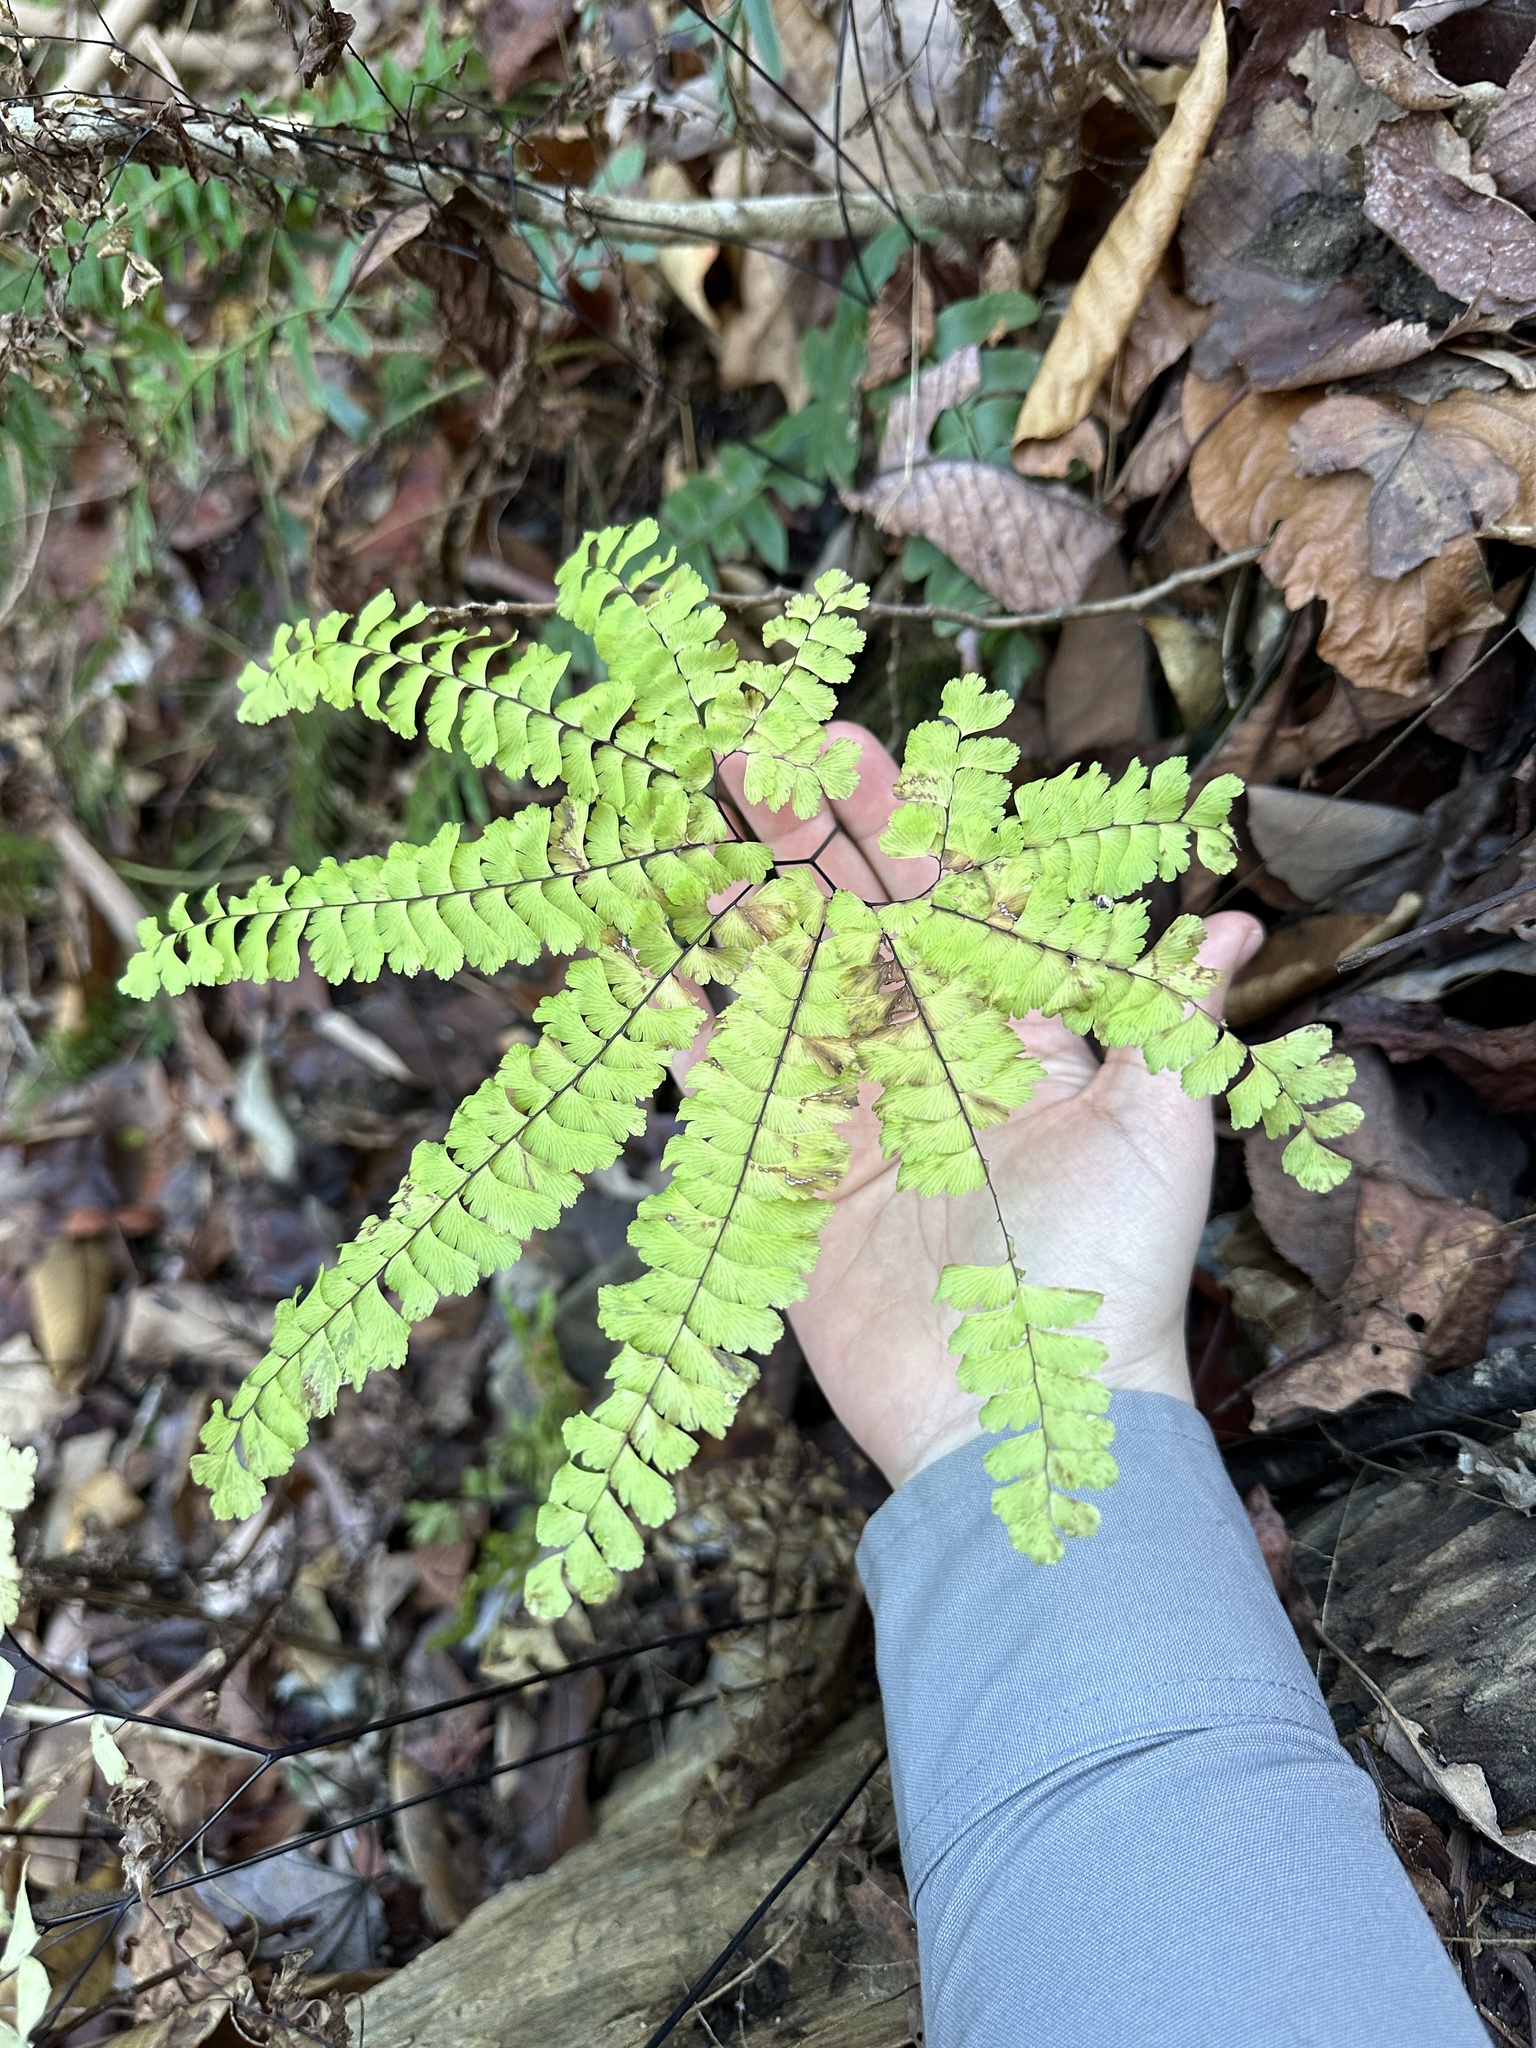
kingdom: Plantae
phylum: Tracheophyta
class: Polypodiopsida
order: Polypodiales
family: Pteridaceae
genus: Adiantum
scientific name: Adiantum pedatum
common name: Five-finger fern
